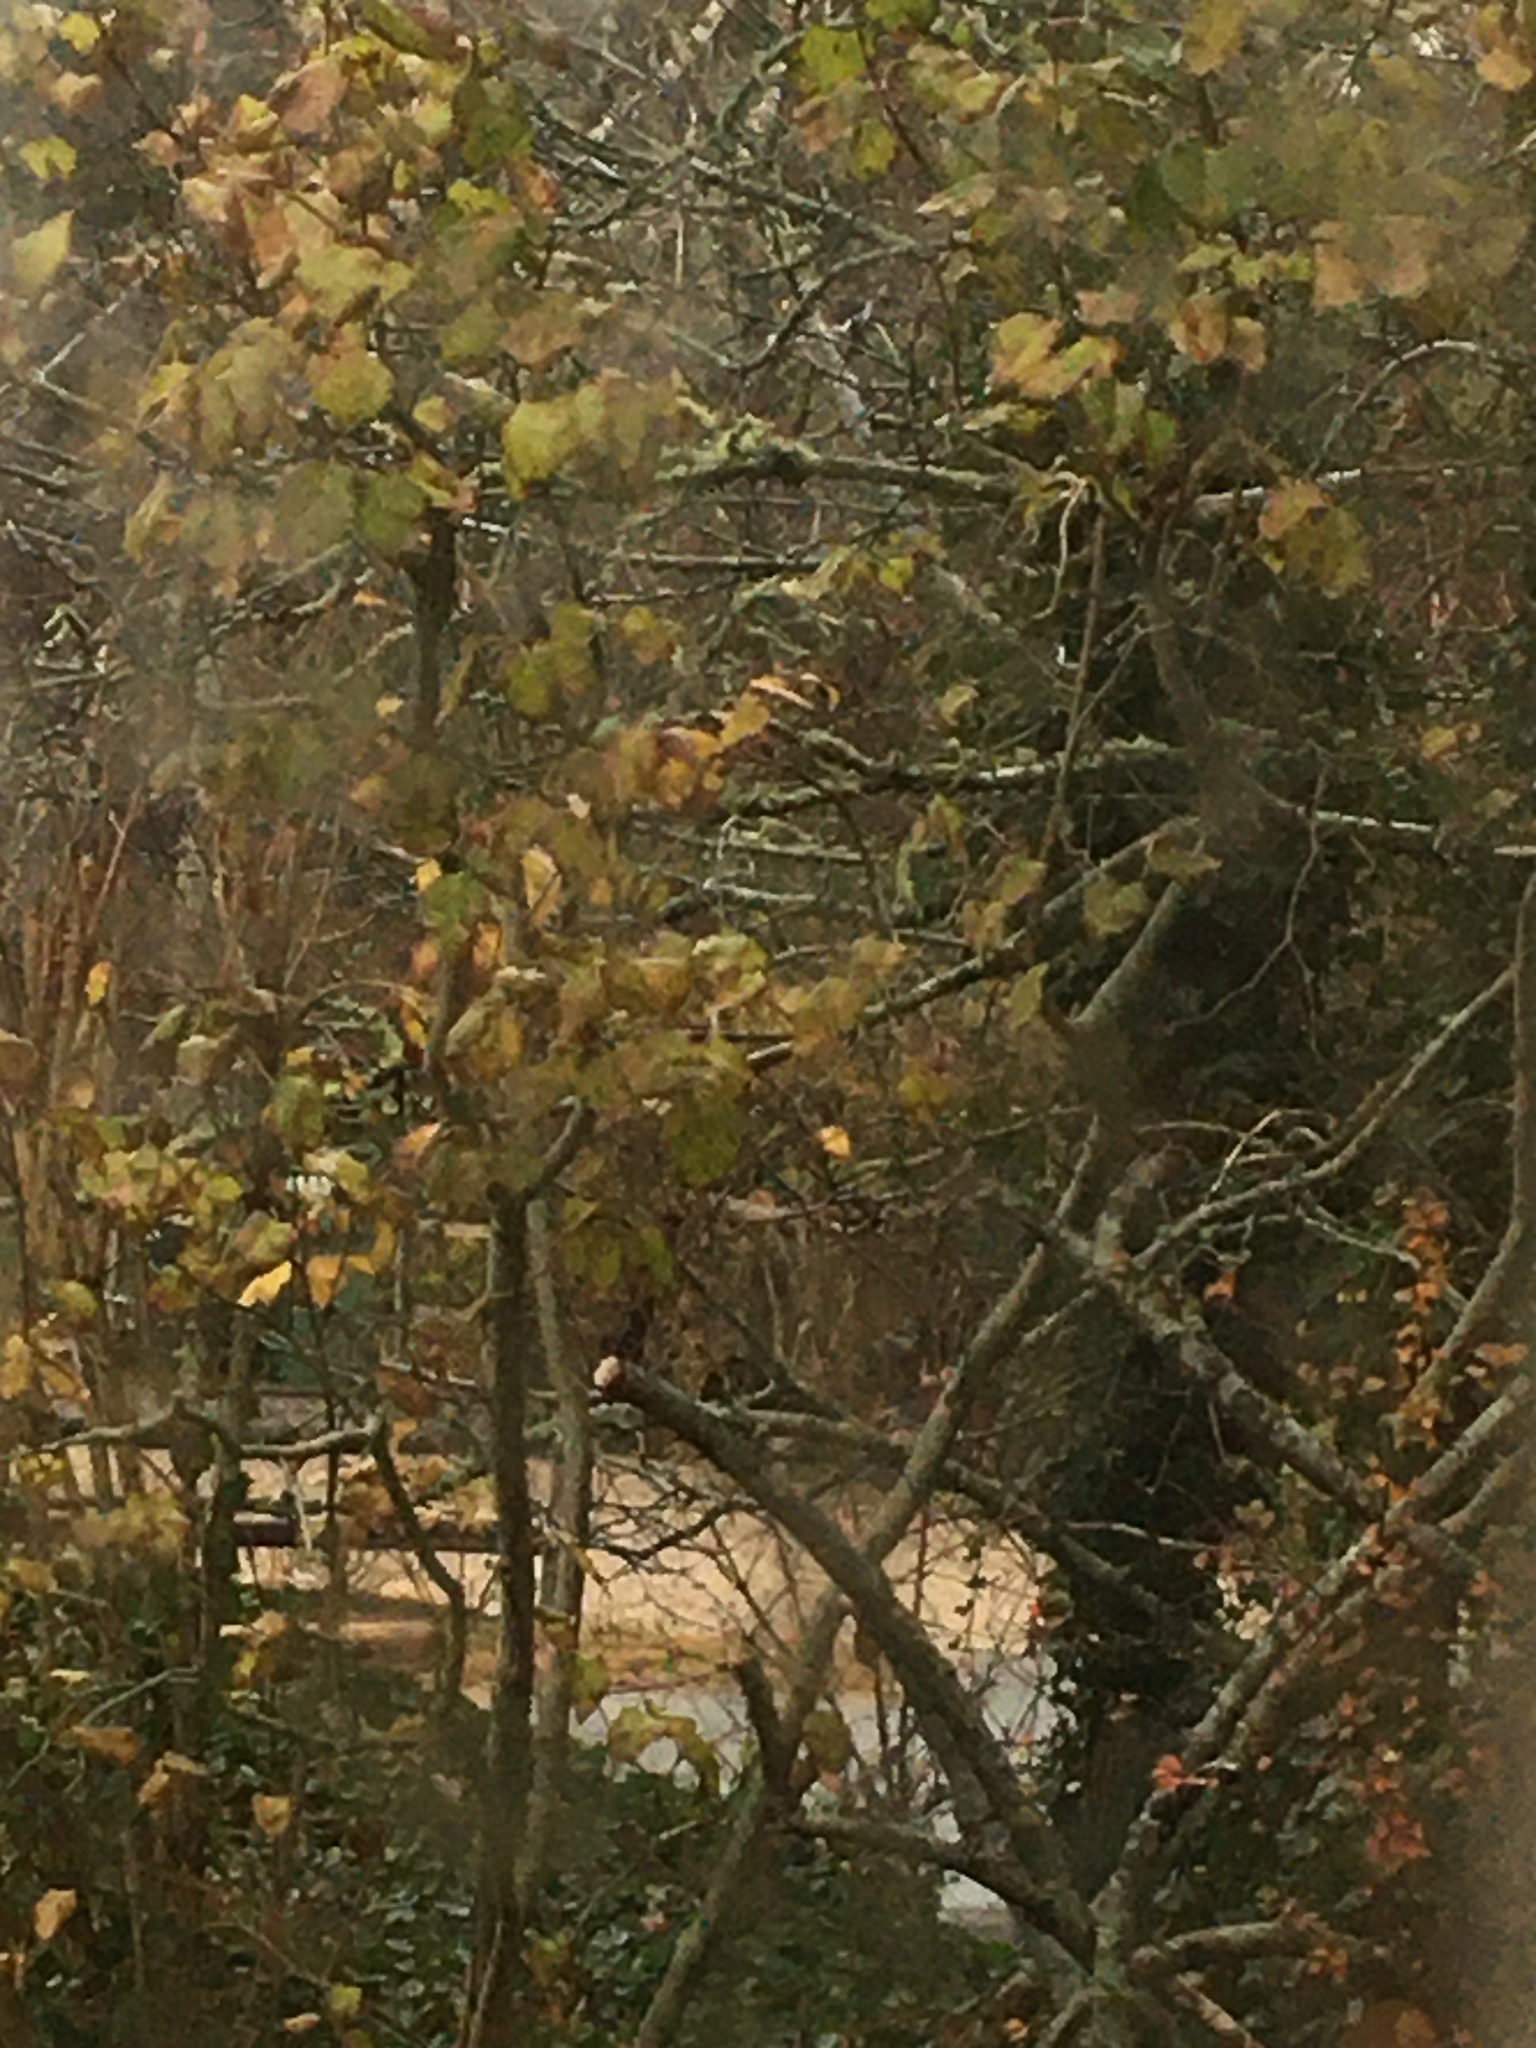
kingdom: Animalia
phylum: Chordata
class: Aves
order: Galliformes
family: Phasianidae
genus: Meleagris
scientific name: Meleagris gallopavo
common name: Wild turkey
